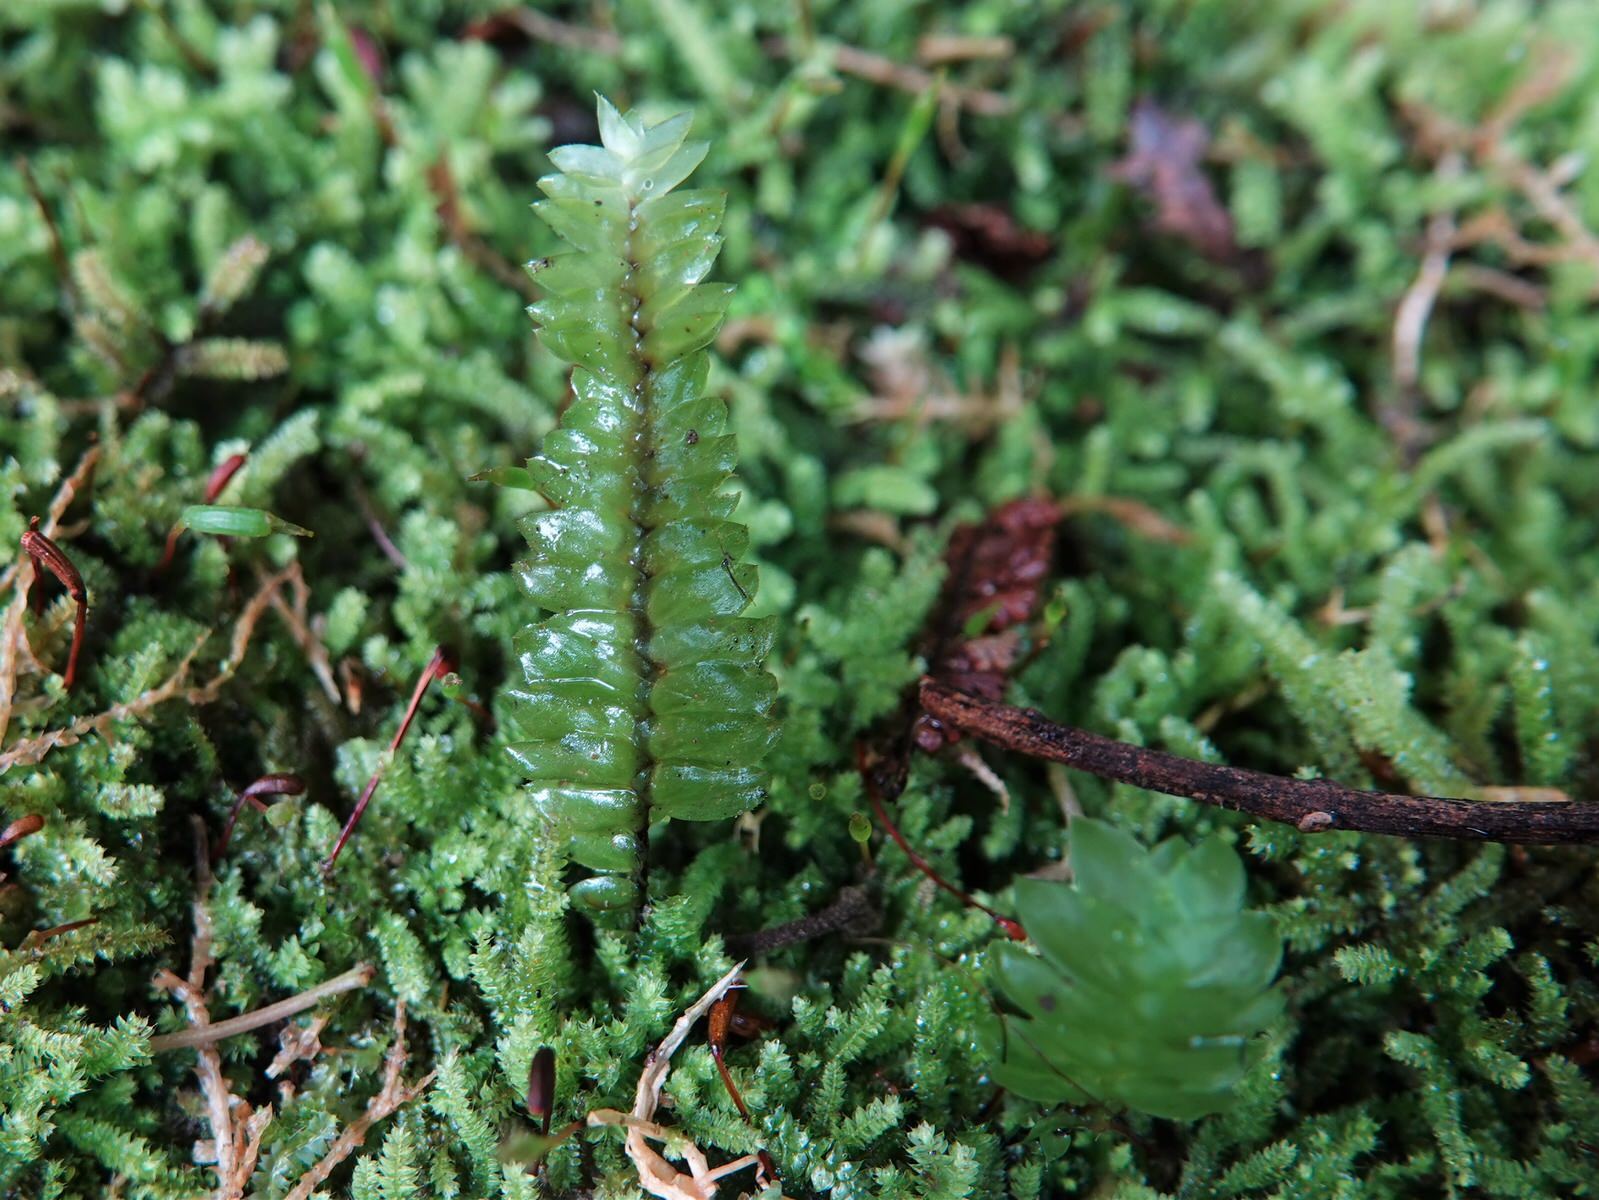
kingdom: Plantae
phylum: Bryophyta
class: Bryopsida
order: Hypopterygiales
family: Hypopterygiaceae
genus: Cyathophorum
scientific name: Cyathophorum bulbosum
